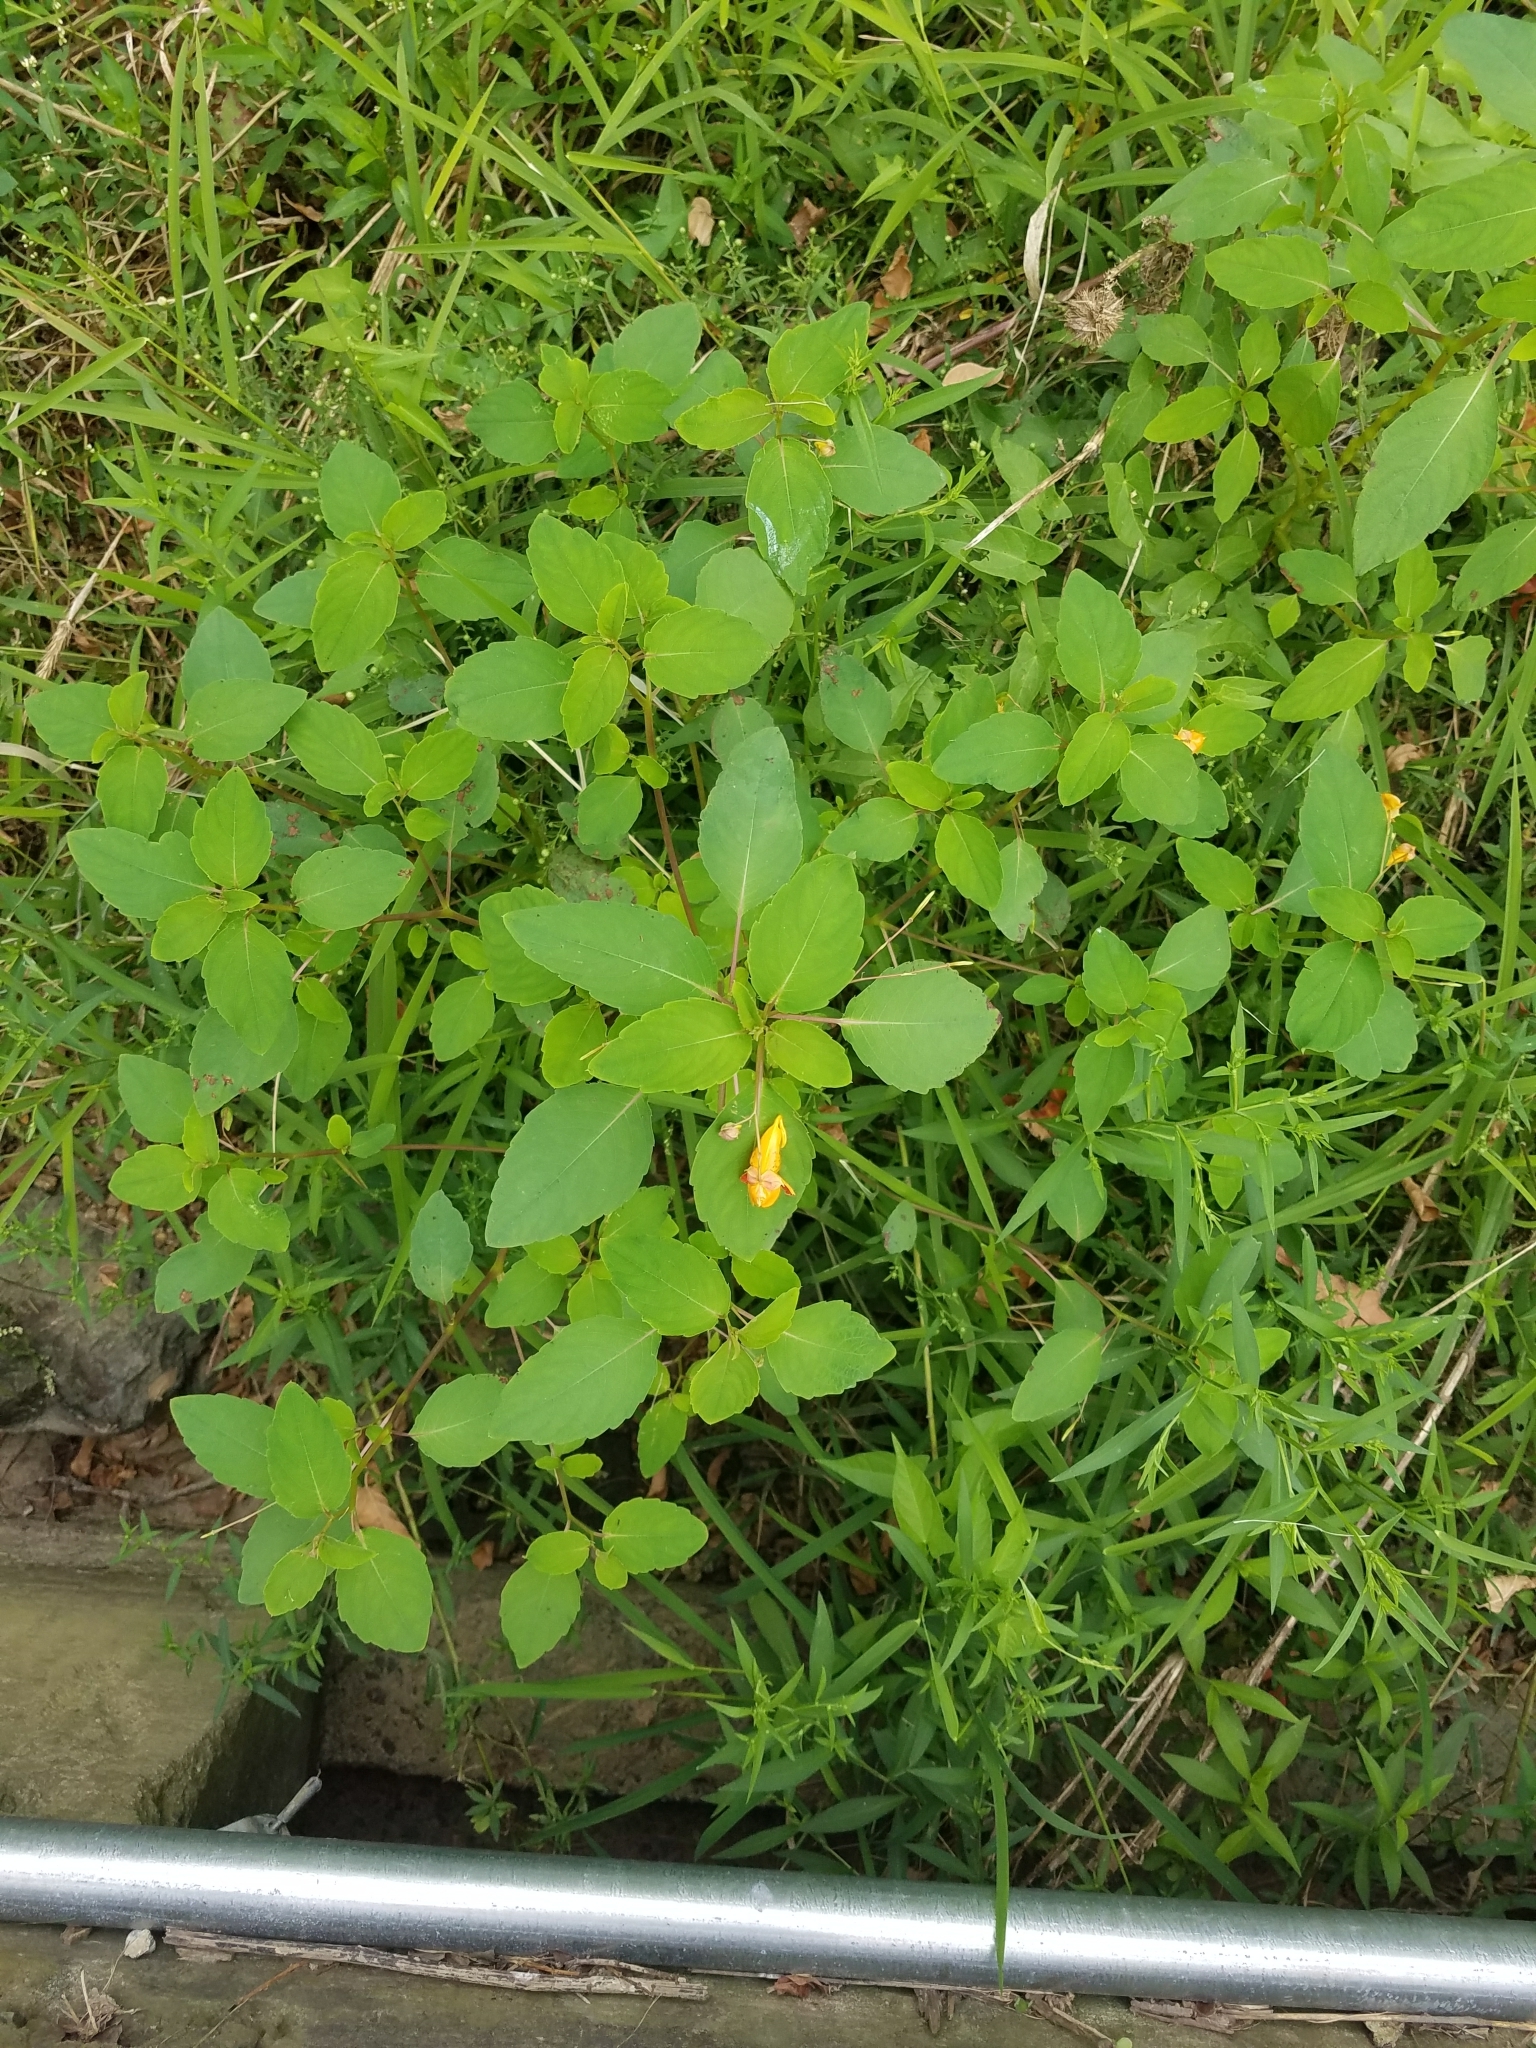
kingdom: Plantae
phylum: Tracheophyta
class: Magnoliopsida
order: Ericales
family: Balsaminaceae
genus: Impatiens
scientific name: Impatiens capensis
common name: Orange balsam
